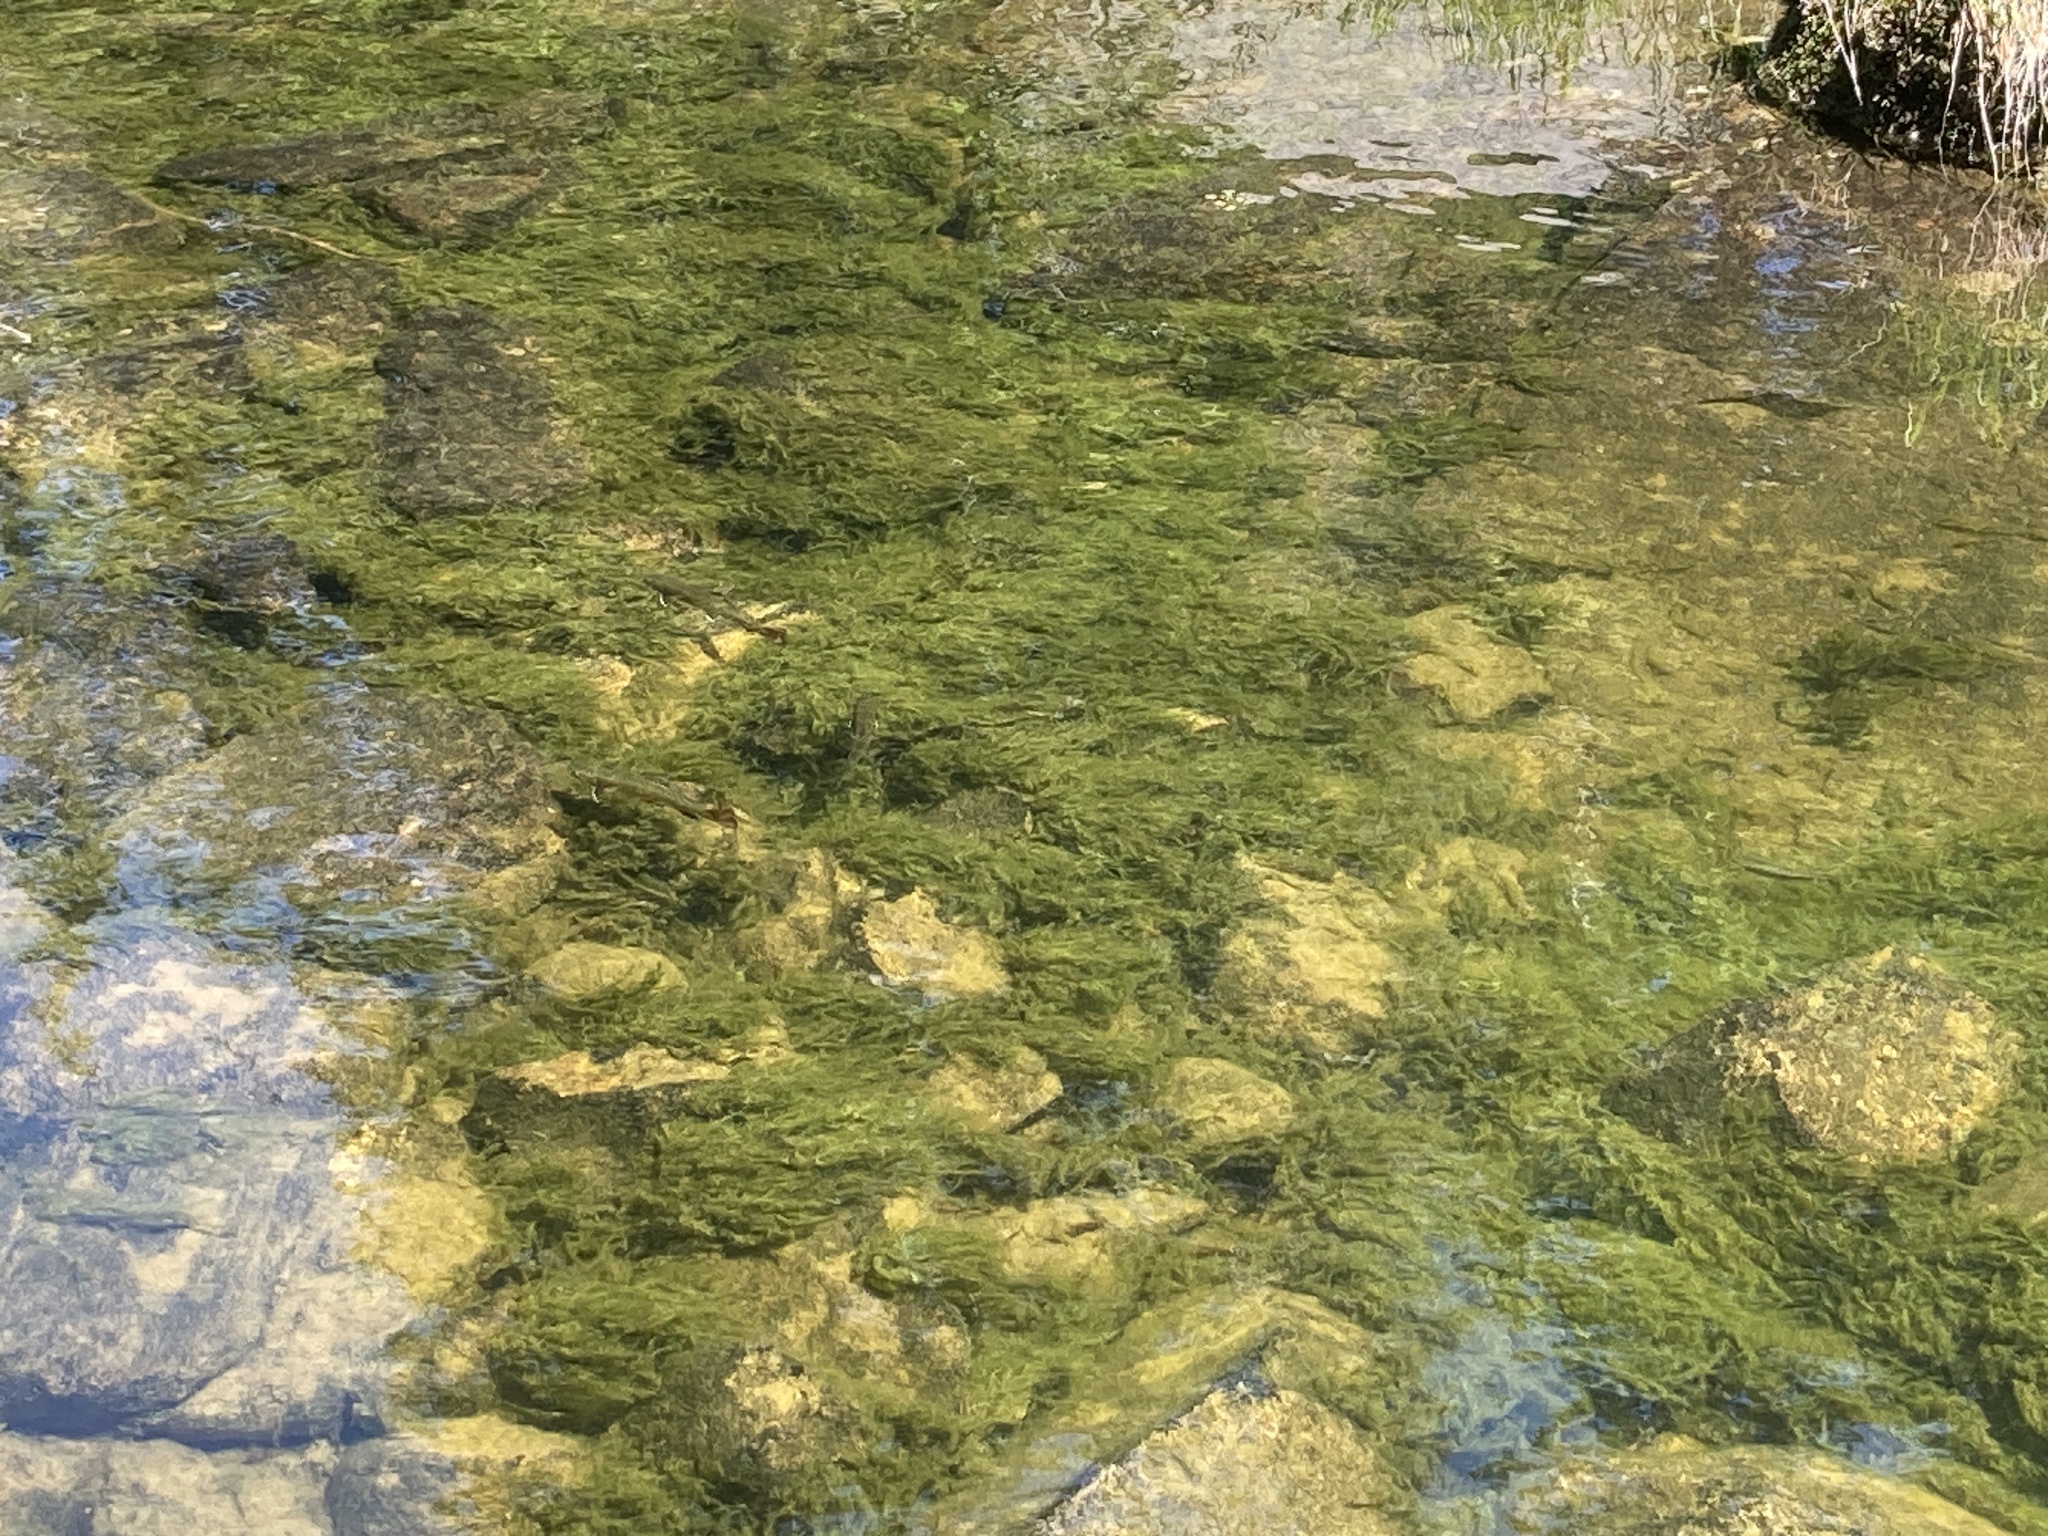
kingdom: Animalia
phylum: Chordata
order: Salmoniformes
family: Salmonidae
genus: Salvelinus
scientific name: Salvelinus fontinalis
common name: Brook trout
